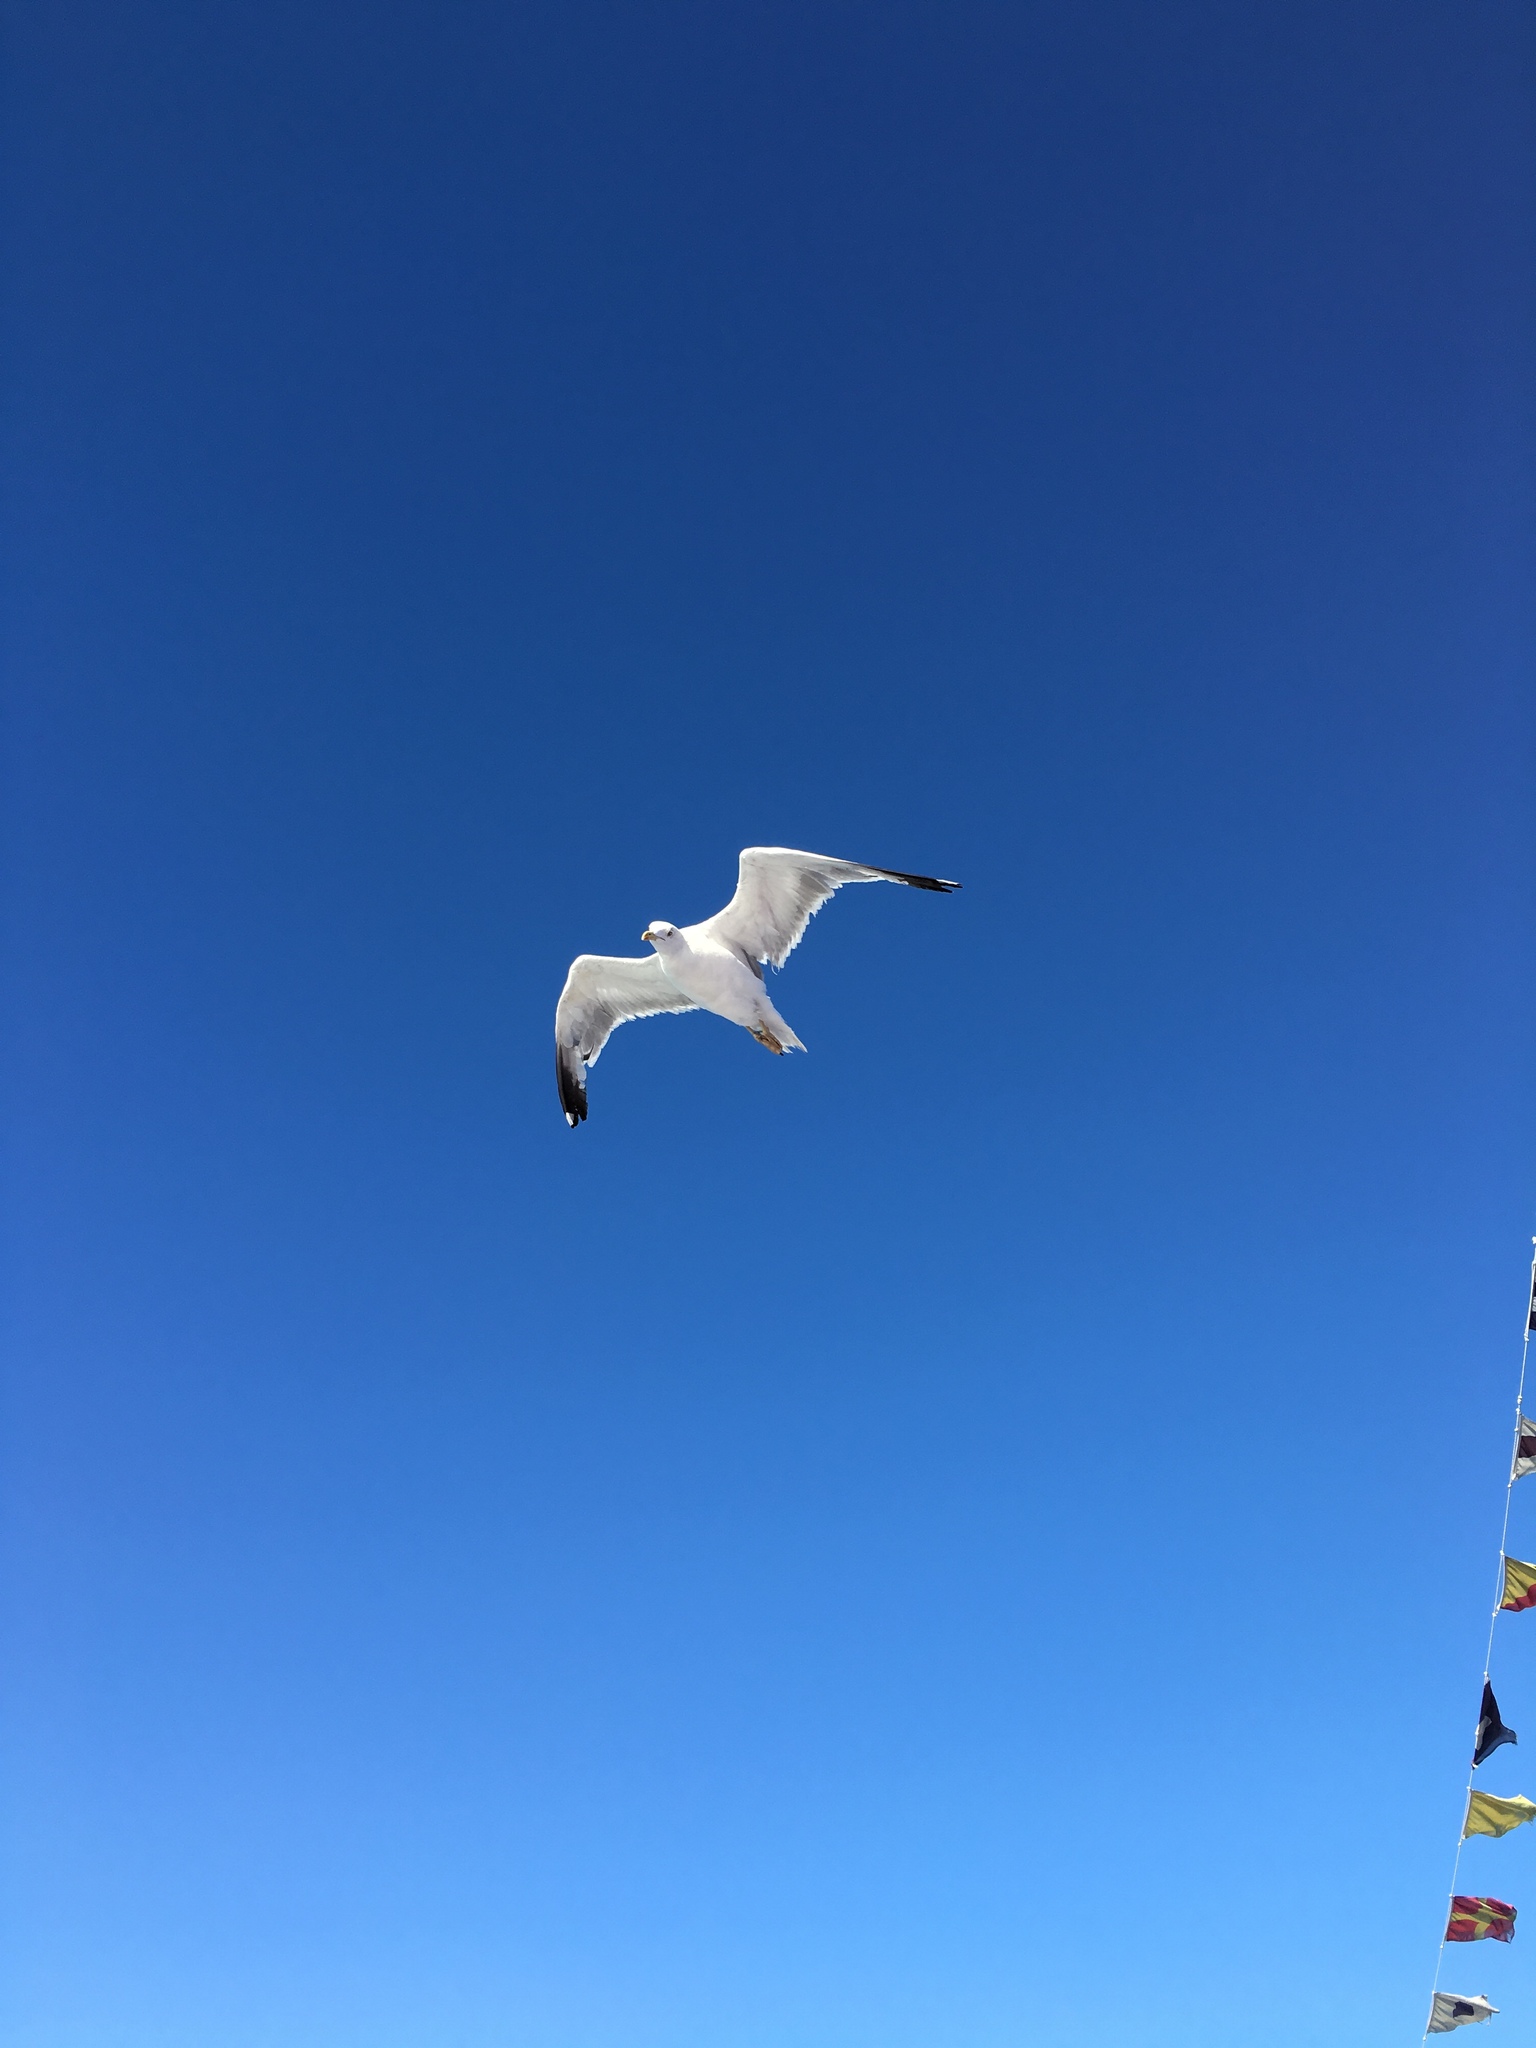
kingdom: Animalia
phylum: Chordata
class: Aves
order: Charadriiformes
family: Laridae
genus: Larus
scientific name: Larus michahellis
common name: Yellow-legged gull
